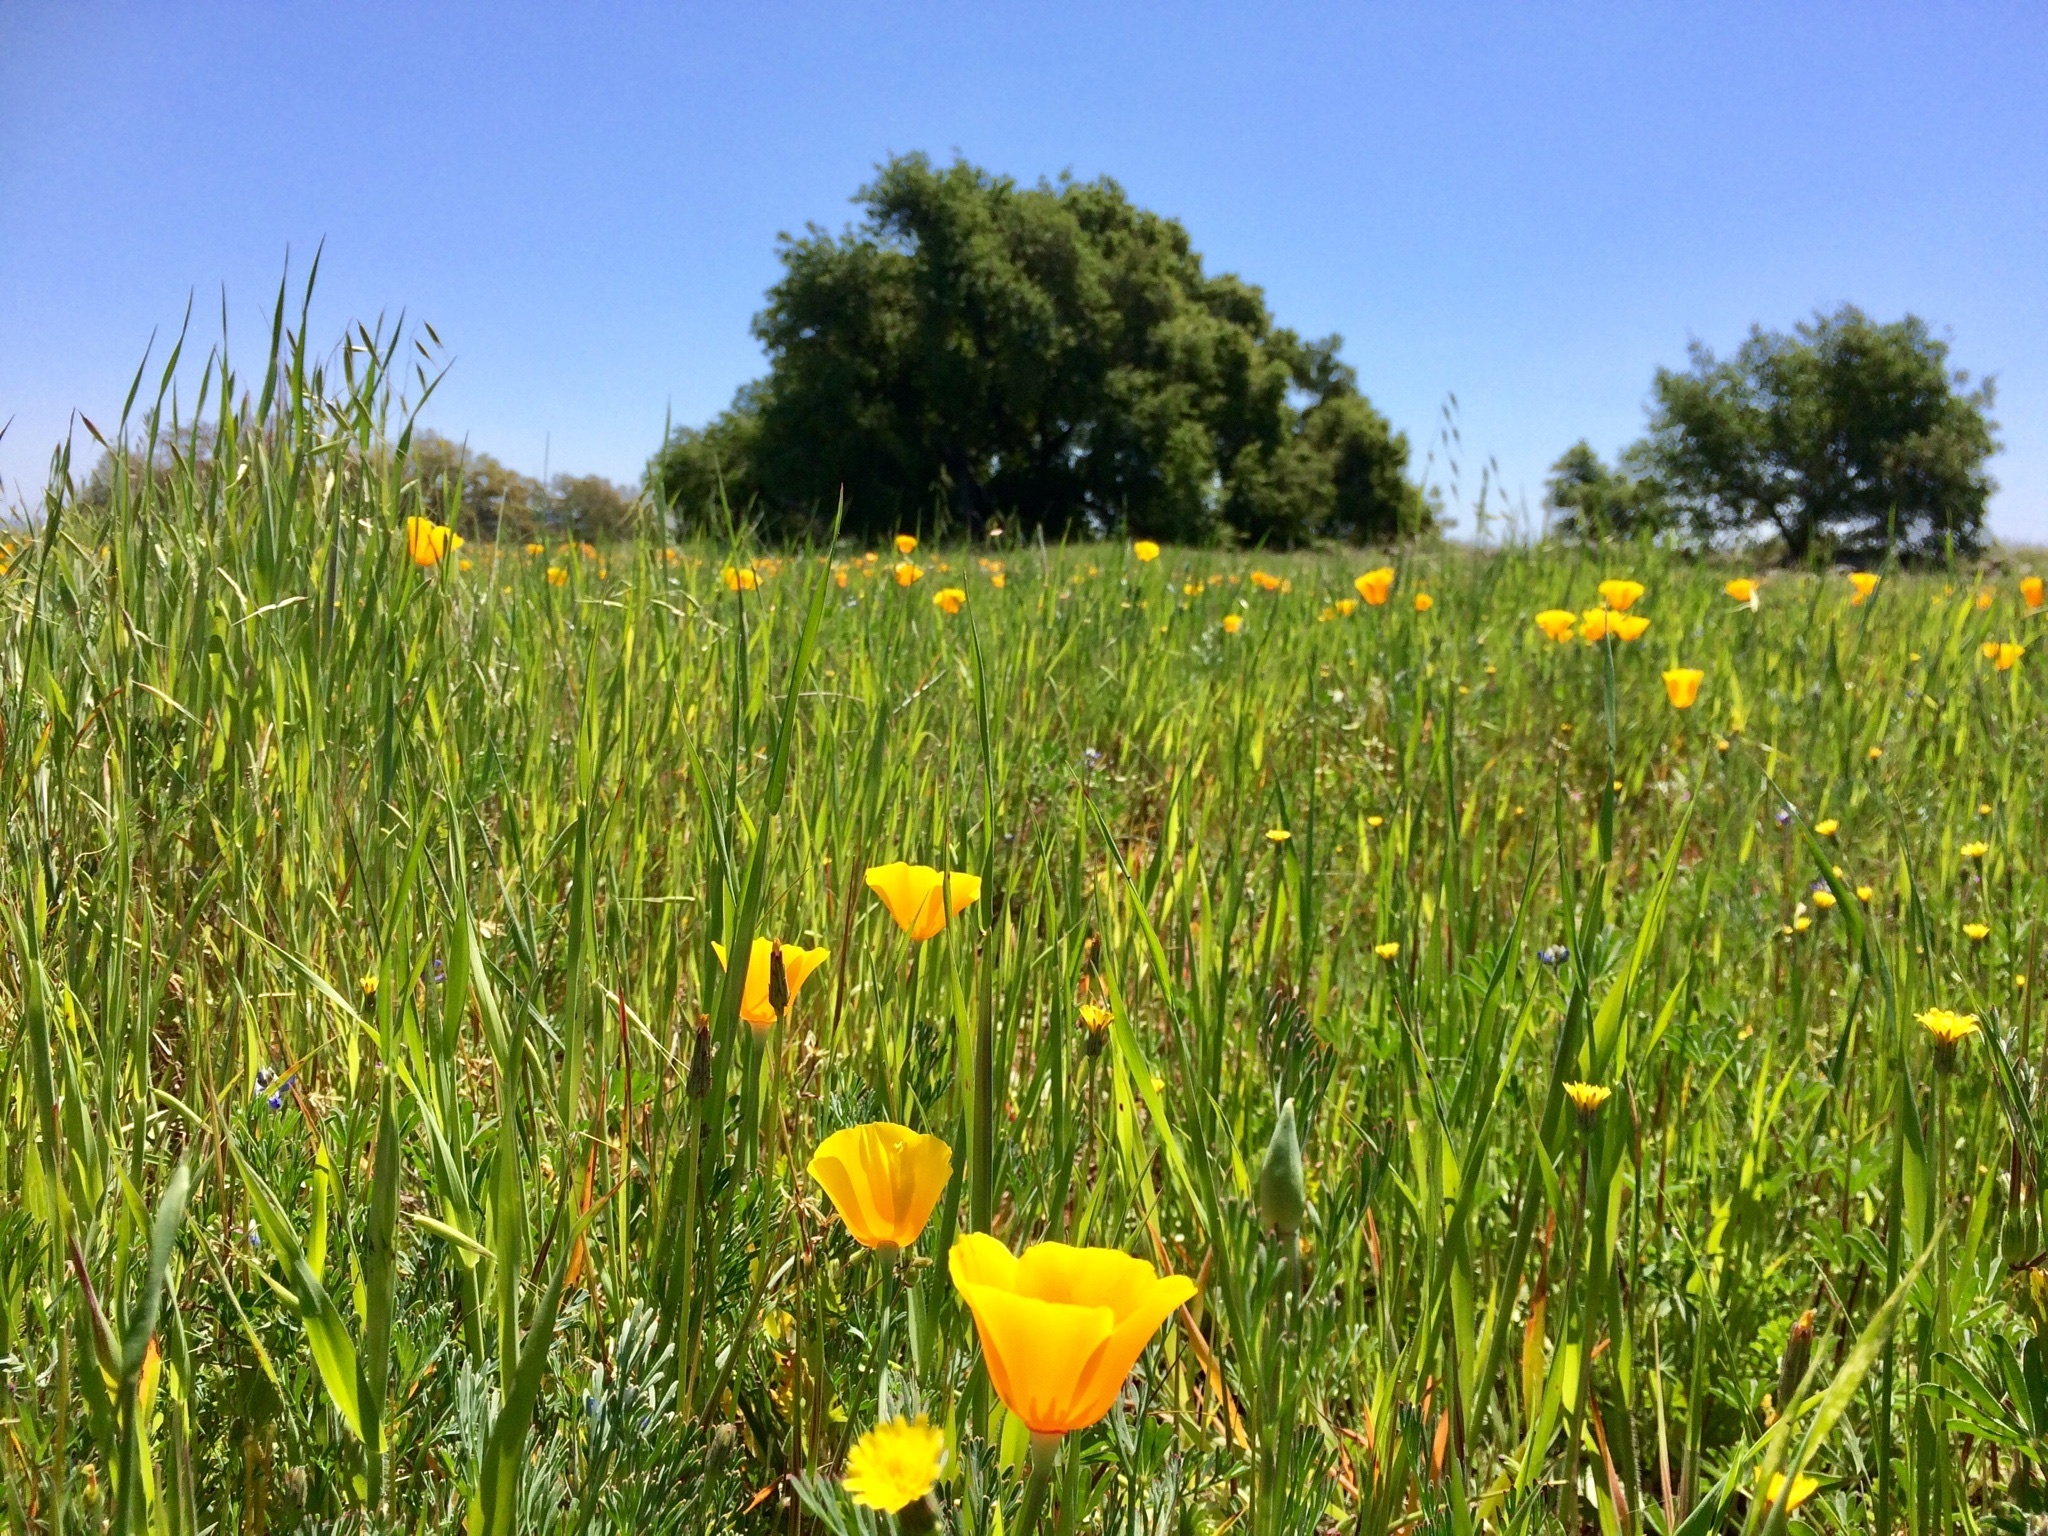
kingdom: Plantae
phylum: Tracheophyta
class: Magnoliopsida
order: Ranunculales
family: Papaveraceae
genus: Eschscholzia
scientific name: Eschscholzia californica
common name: California poppy
